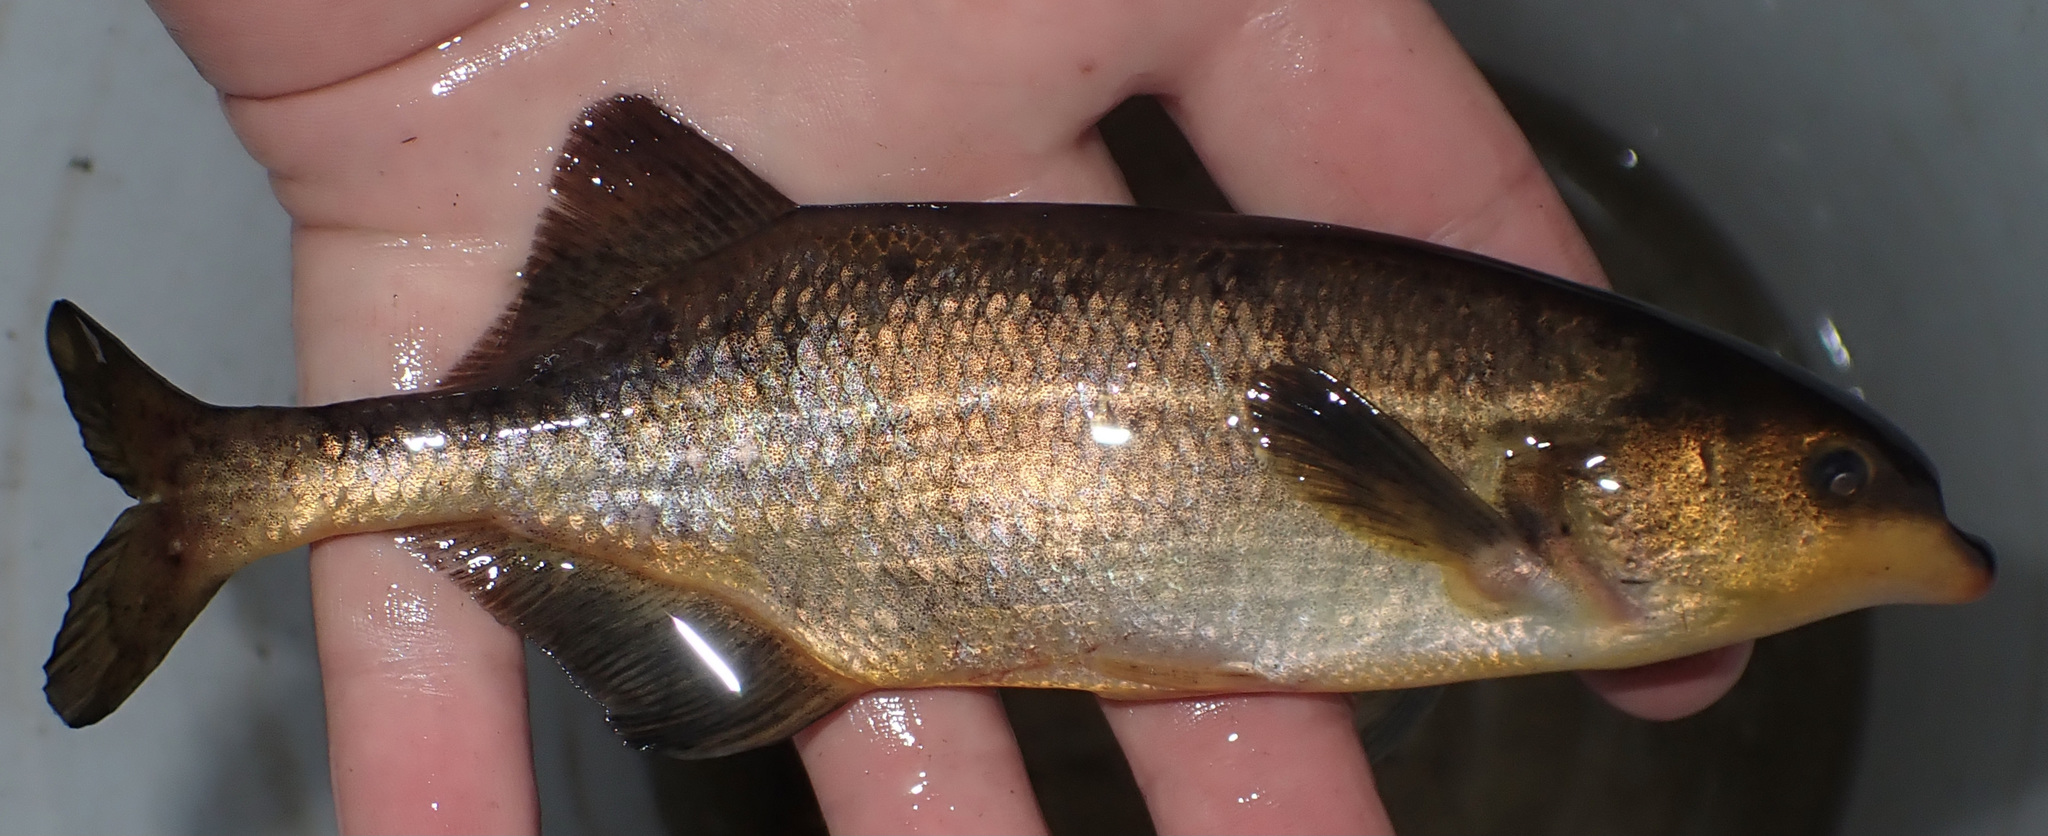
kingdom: Animalia
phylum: Chordata
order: Osteoglossiformes
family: Mormyridae
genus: Marcusenius
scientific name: Marcusenius altisambesi
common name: Bulldog
